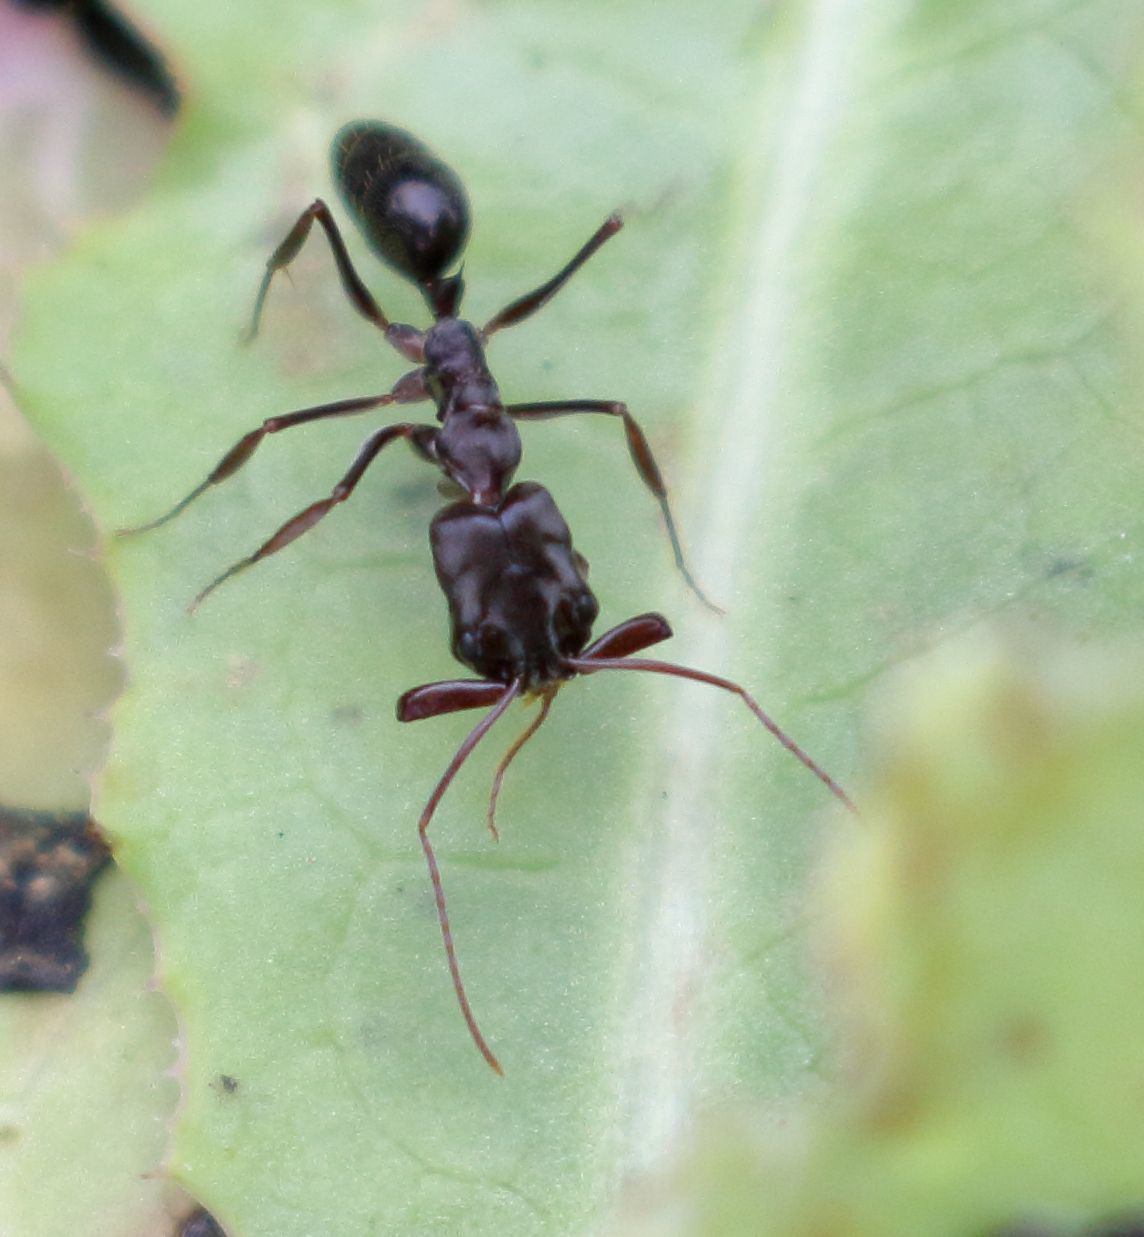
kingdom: Animalia
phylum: Arthropoda
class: Insecta
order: Hymenoptera
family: Formicidae
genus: Odontomachus
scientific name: Odontomachus troglodytes
